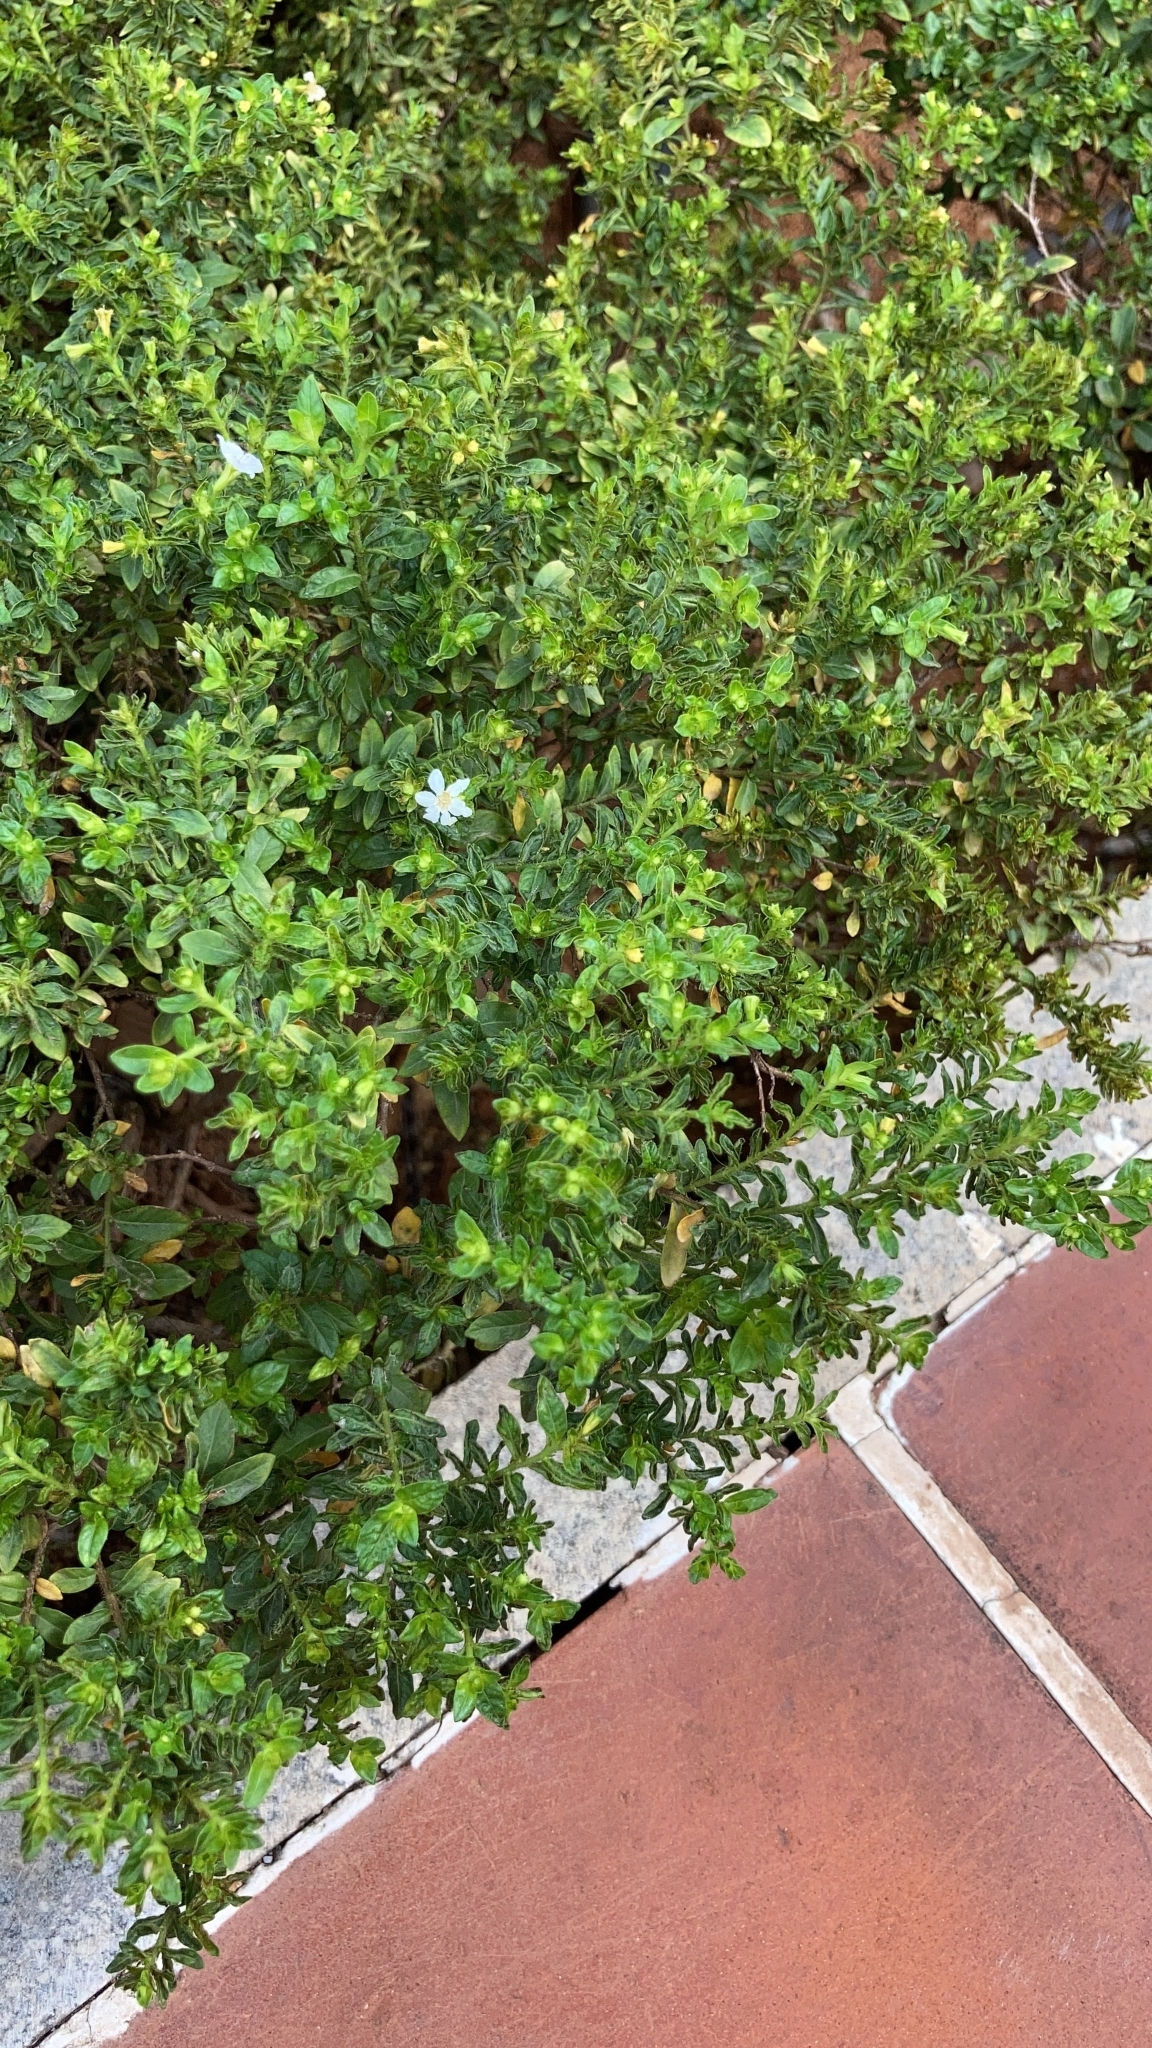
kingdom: Plantae
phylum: Tracheophyta
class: Magnoliopsida
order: Myrtales
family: Lythraceae
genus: Cuphea
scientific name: Cuphea hyssopifolia
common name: False heather
